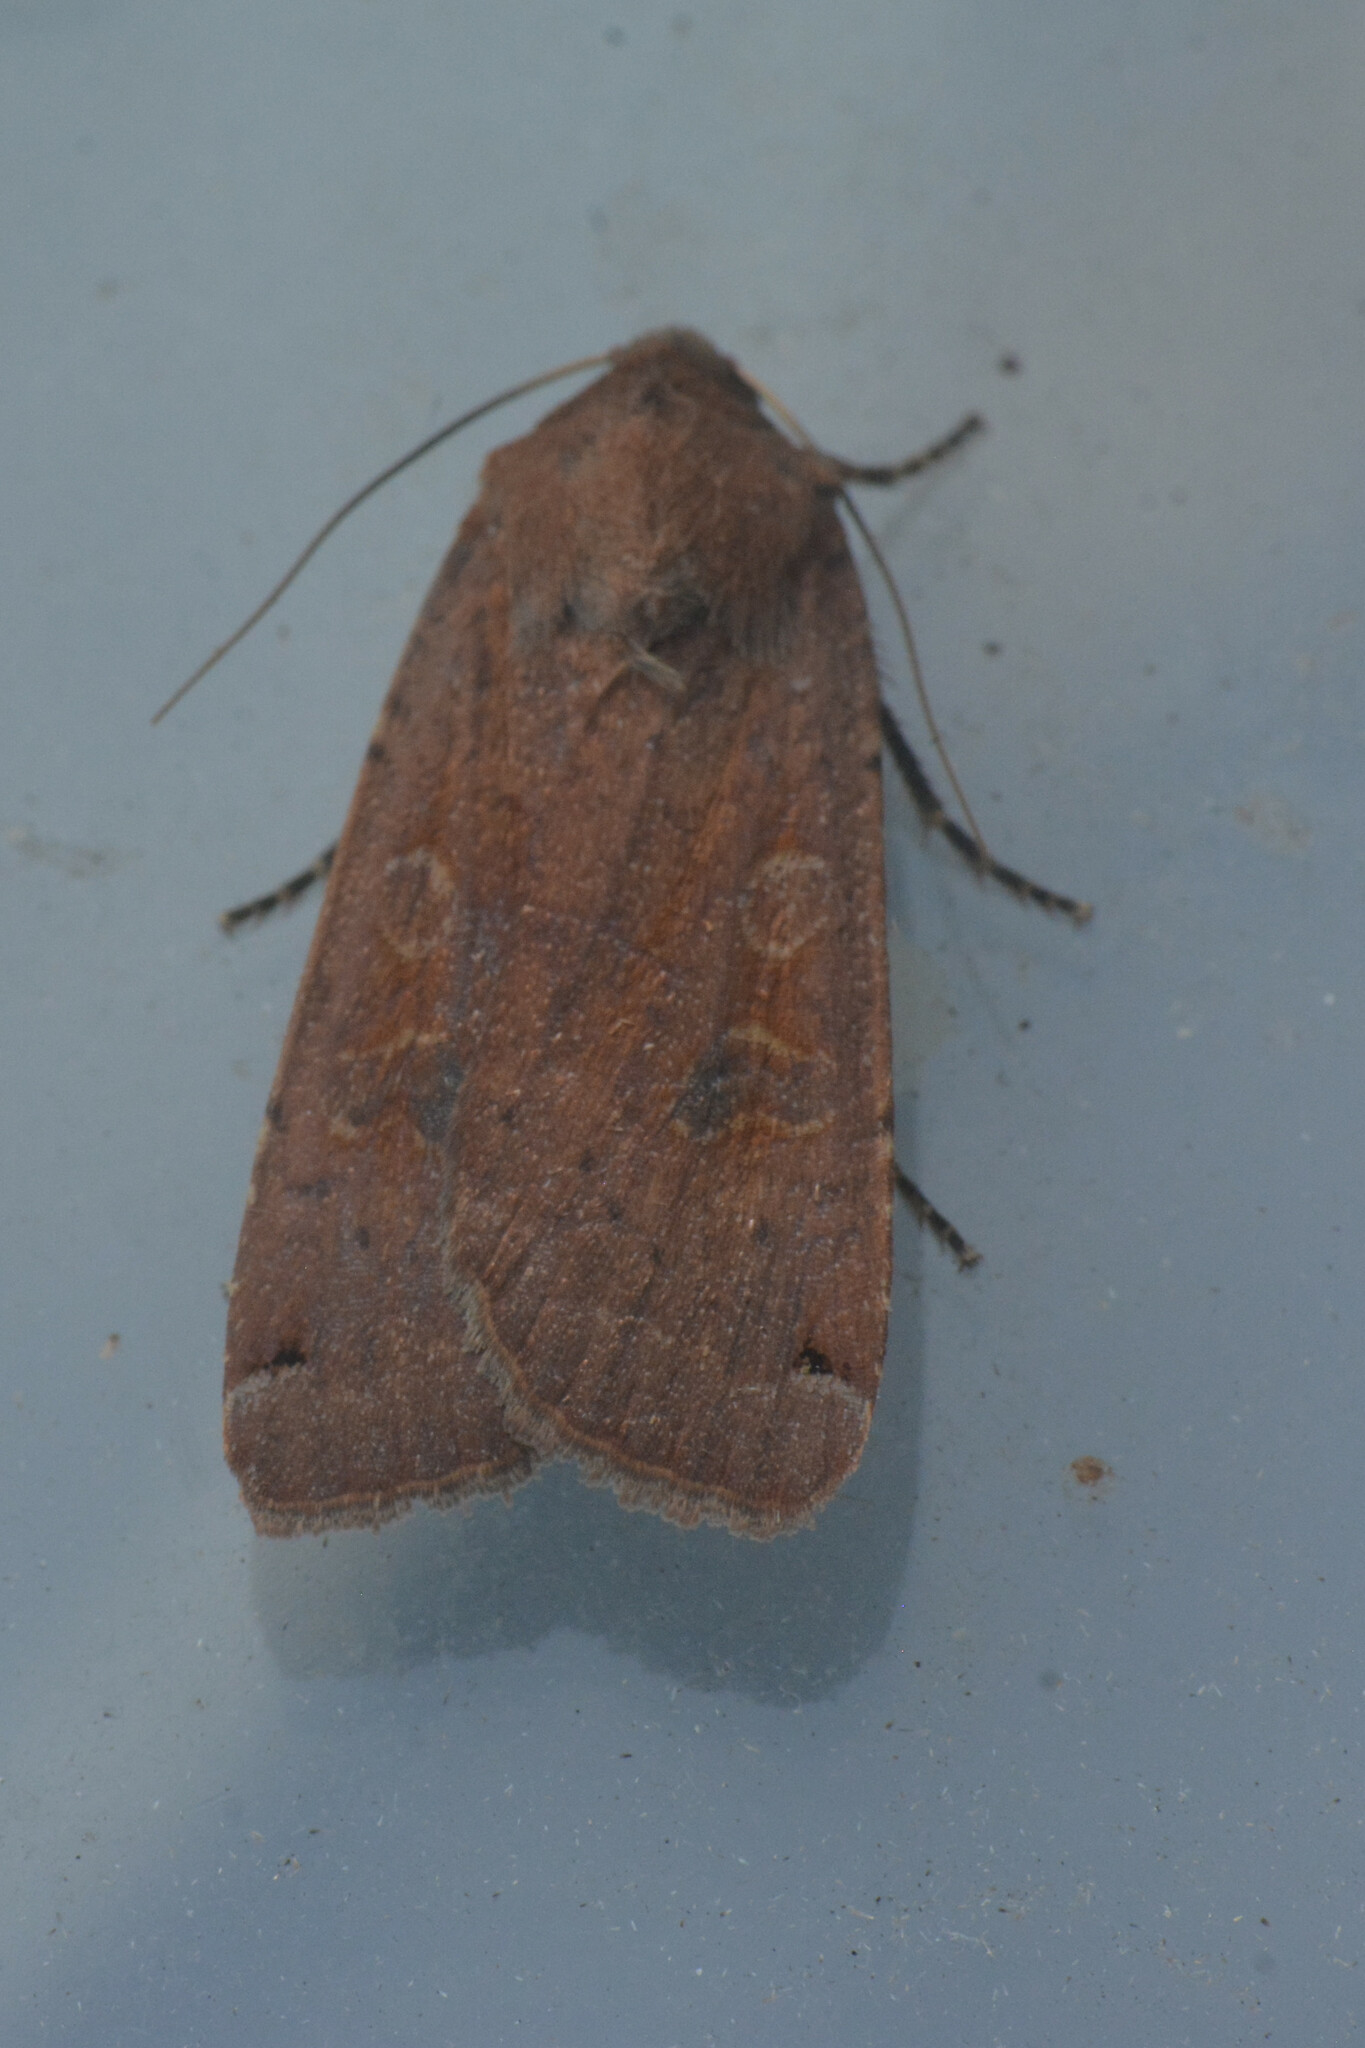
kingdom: Animalia
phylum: Arthropoda
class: Insecta
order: Lepidoptera
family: Noctuidae
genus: Noctua
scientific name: Noctua pronuba
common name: Large yellow underwing
